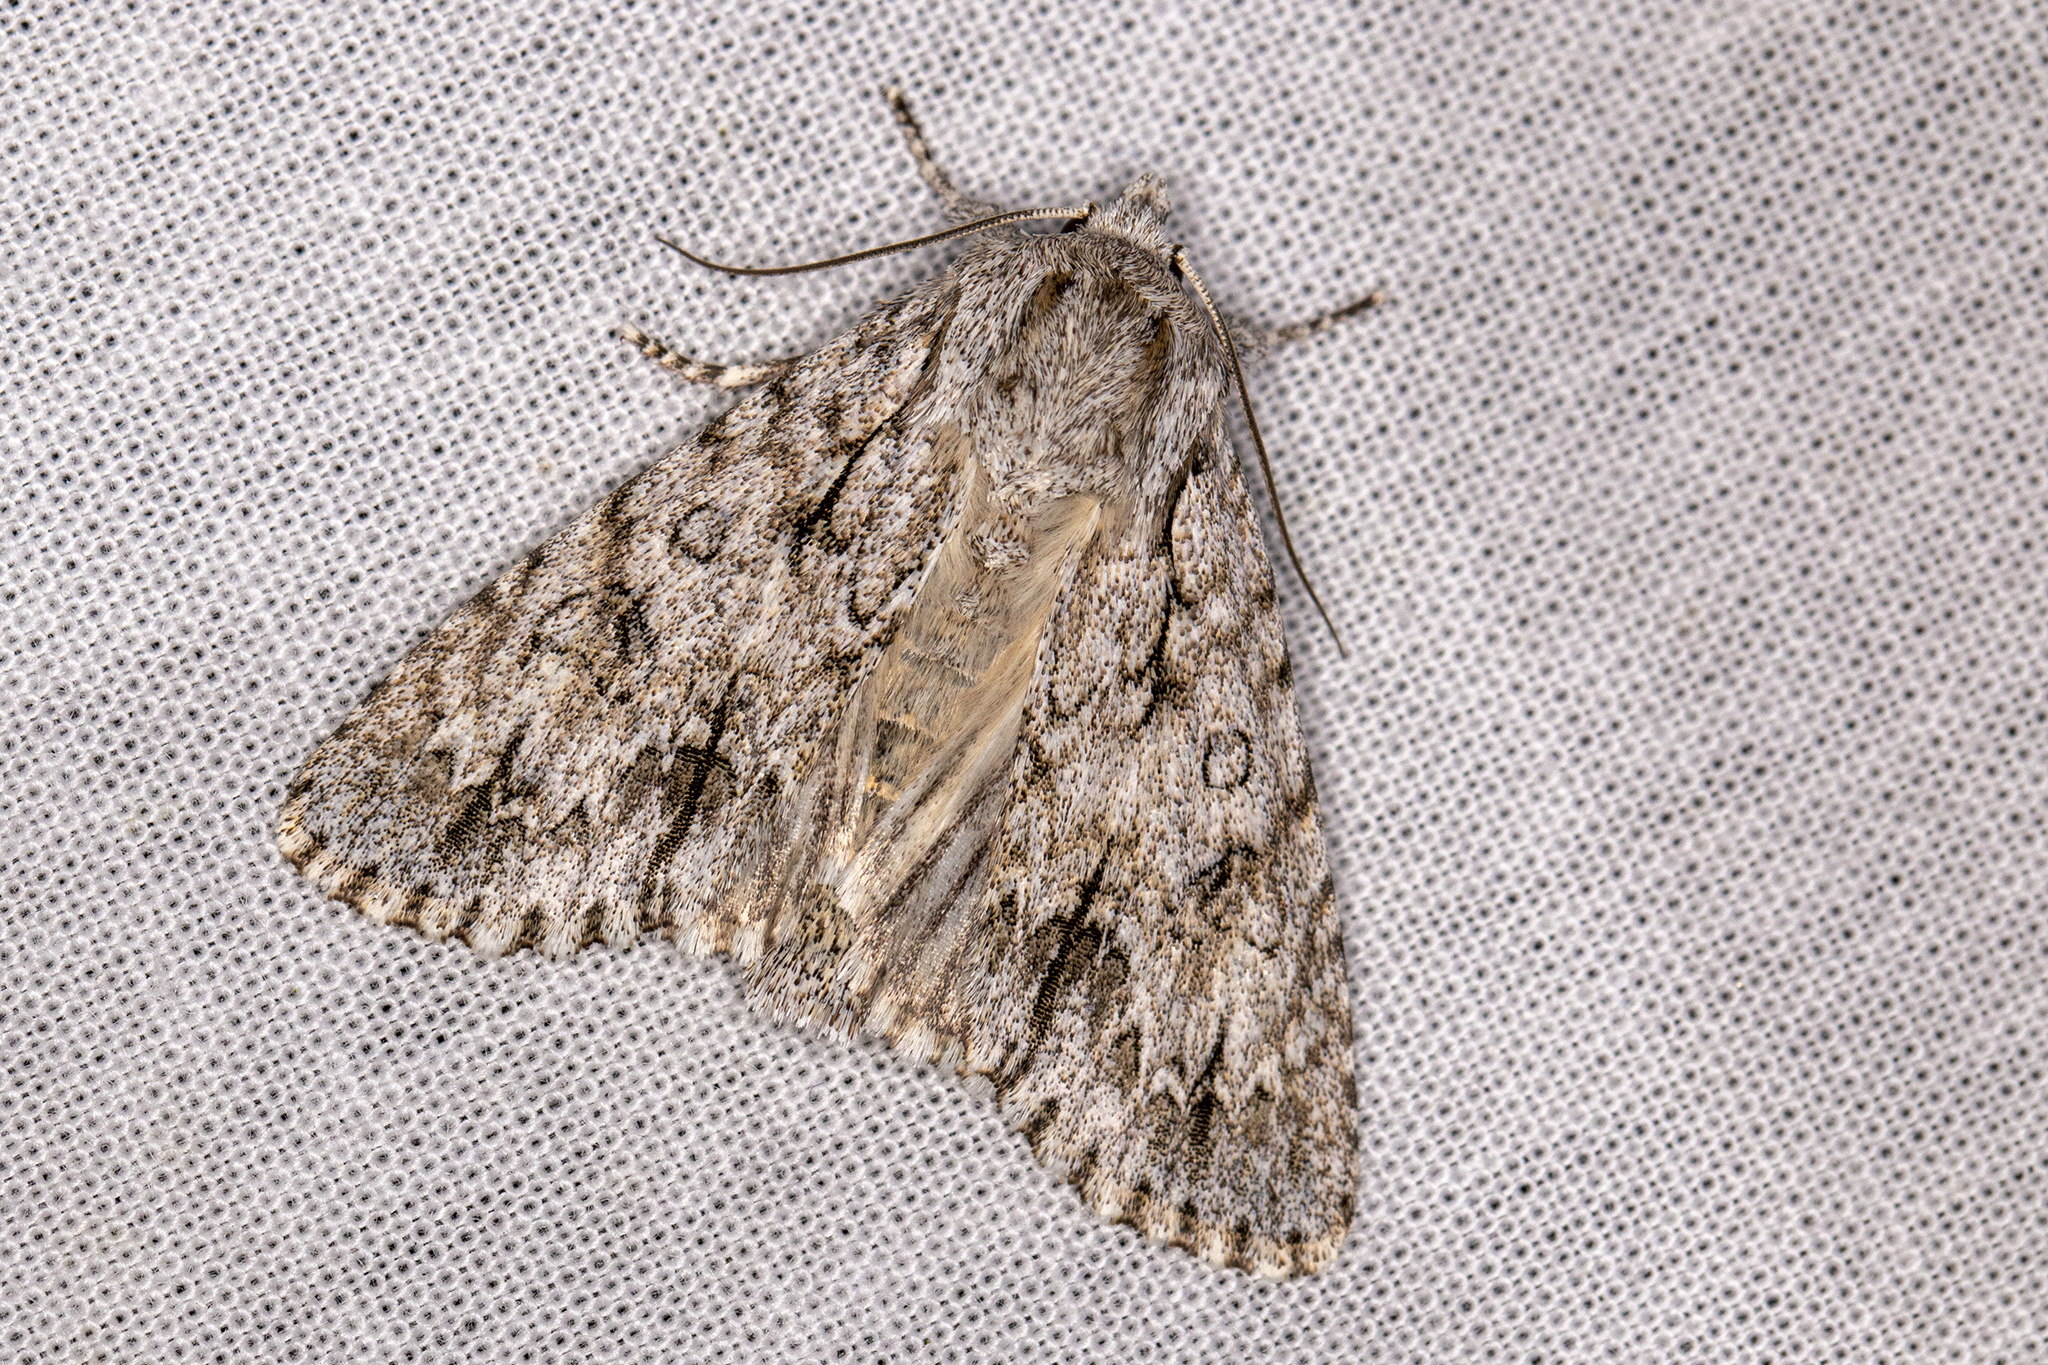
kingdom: Animalia
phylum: Arthropoda
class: Insecta
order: Lepidoptera
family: Noctuidae
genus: Acronicta
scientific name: Acronicta aceris
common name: Sycamore
